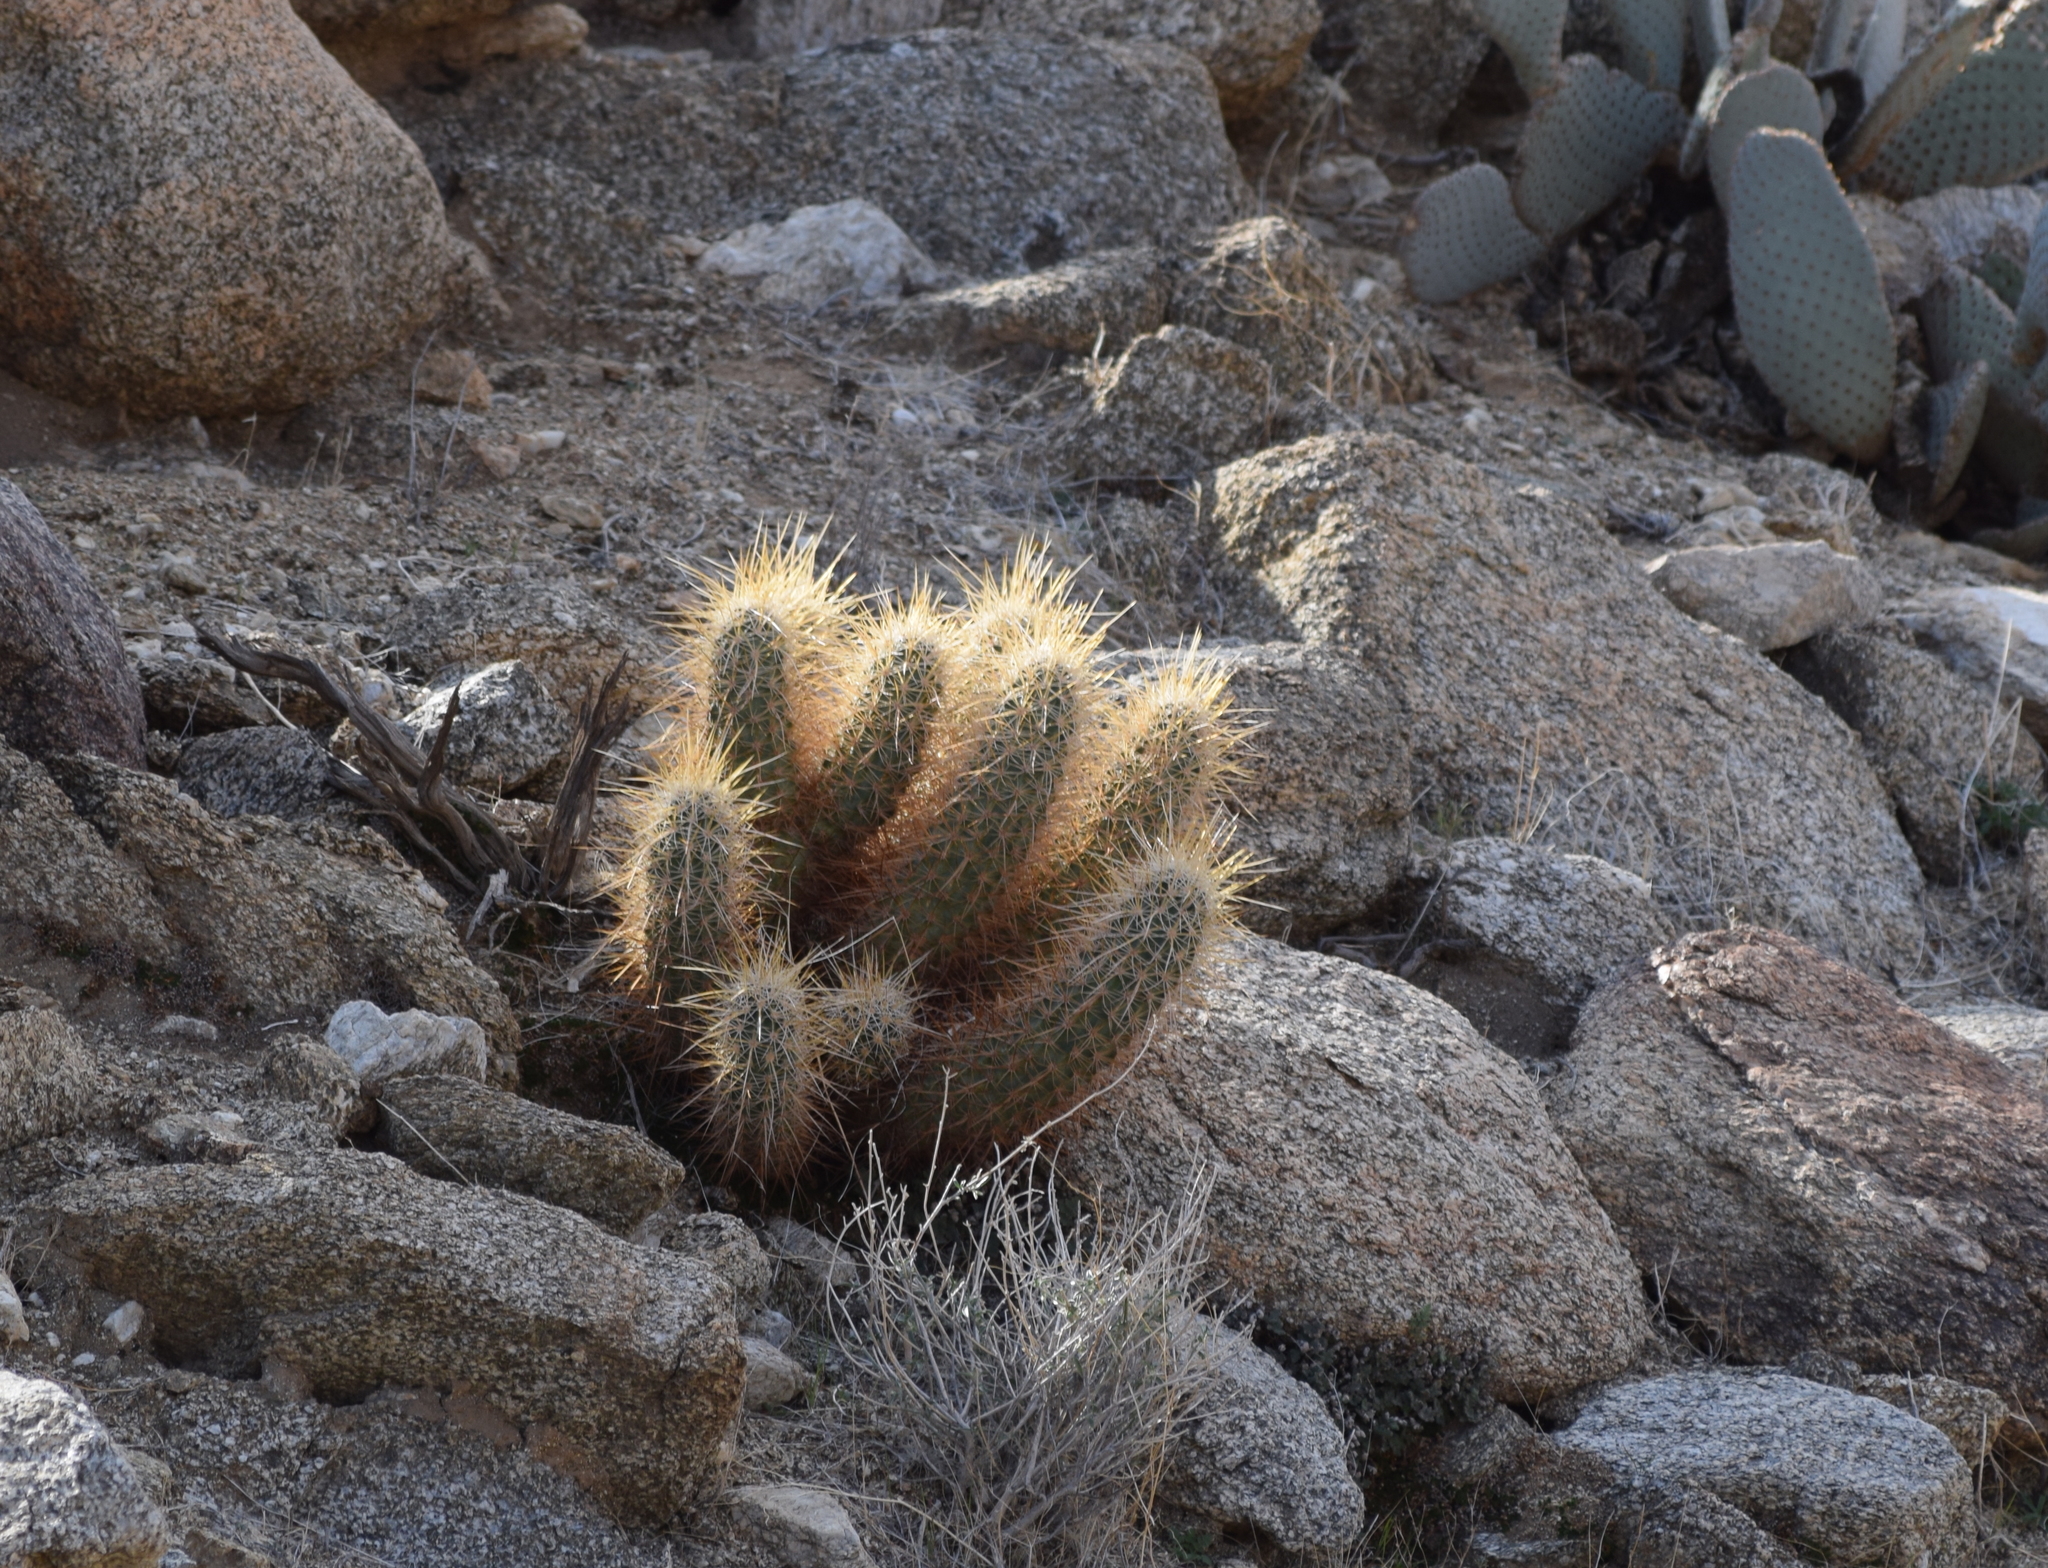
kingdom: Plantae
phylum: Tracheophyta
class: Magnoliopsida
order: Caryophyllales
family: Cactaceae
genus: Echinocereus
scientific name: Echinocereus engelmannii
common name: Engelmann's hedgehog cactus
